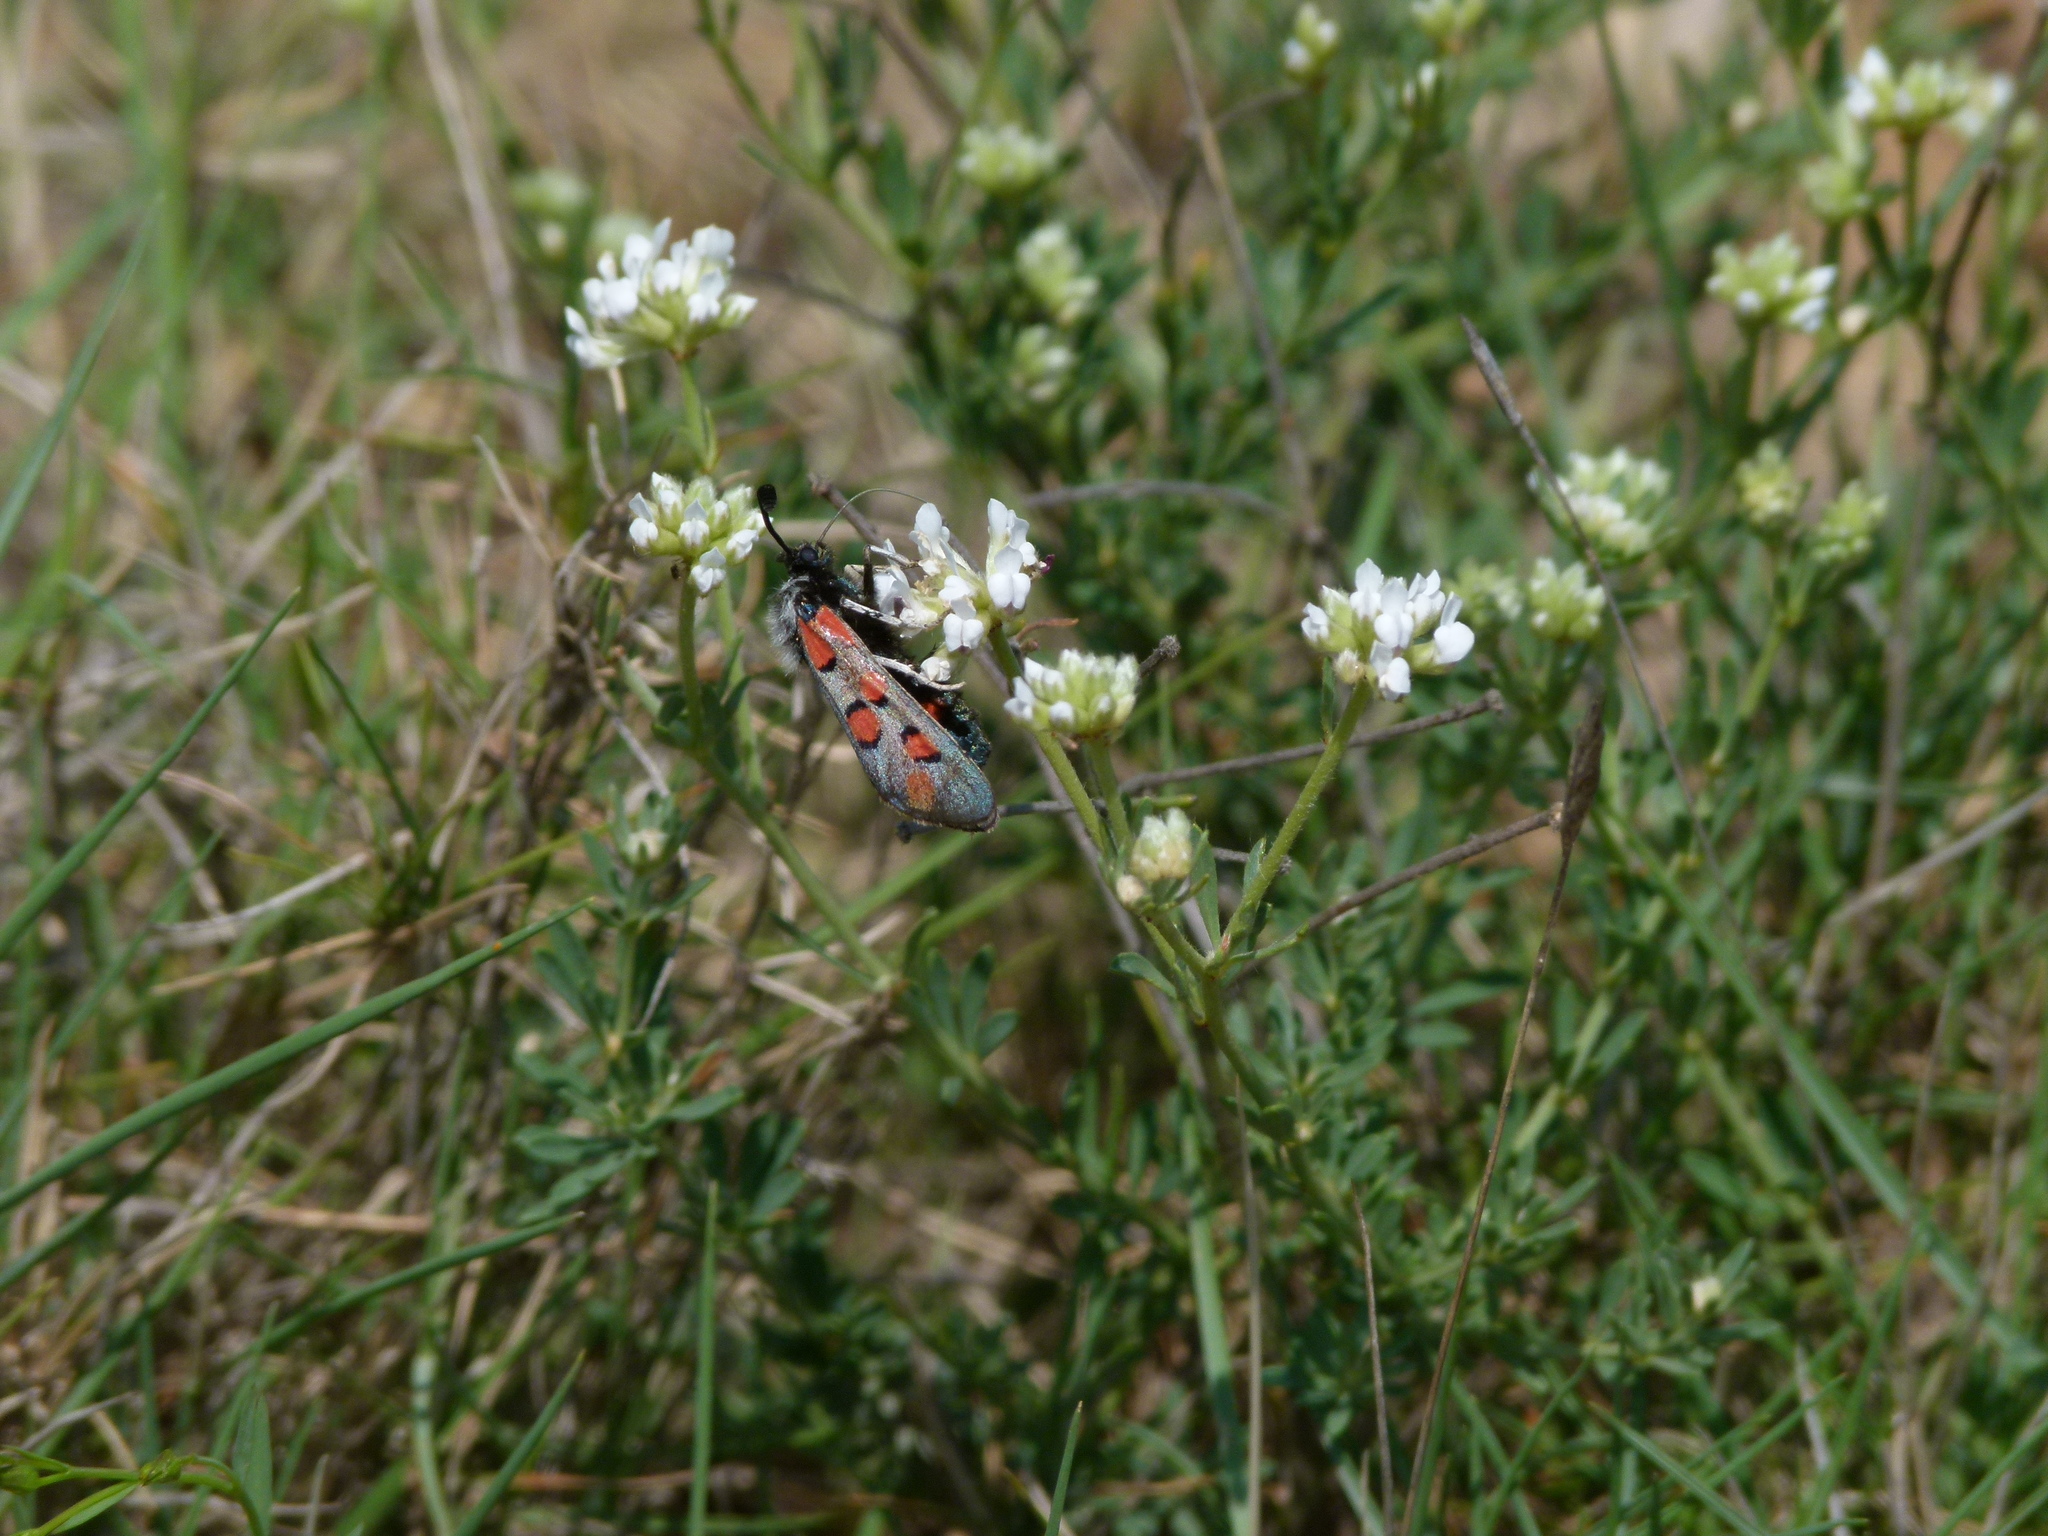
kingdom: Animalia
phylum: Arthropoda
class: Insecta
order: Lepidoptera
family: Zygaenidae
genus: Zygaena
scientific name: Zygaena rhadamanthus
